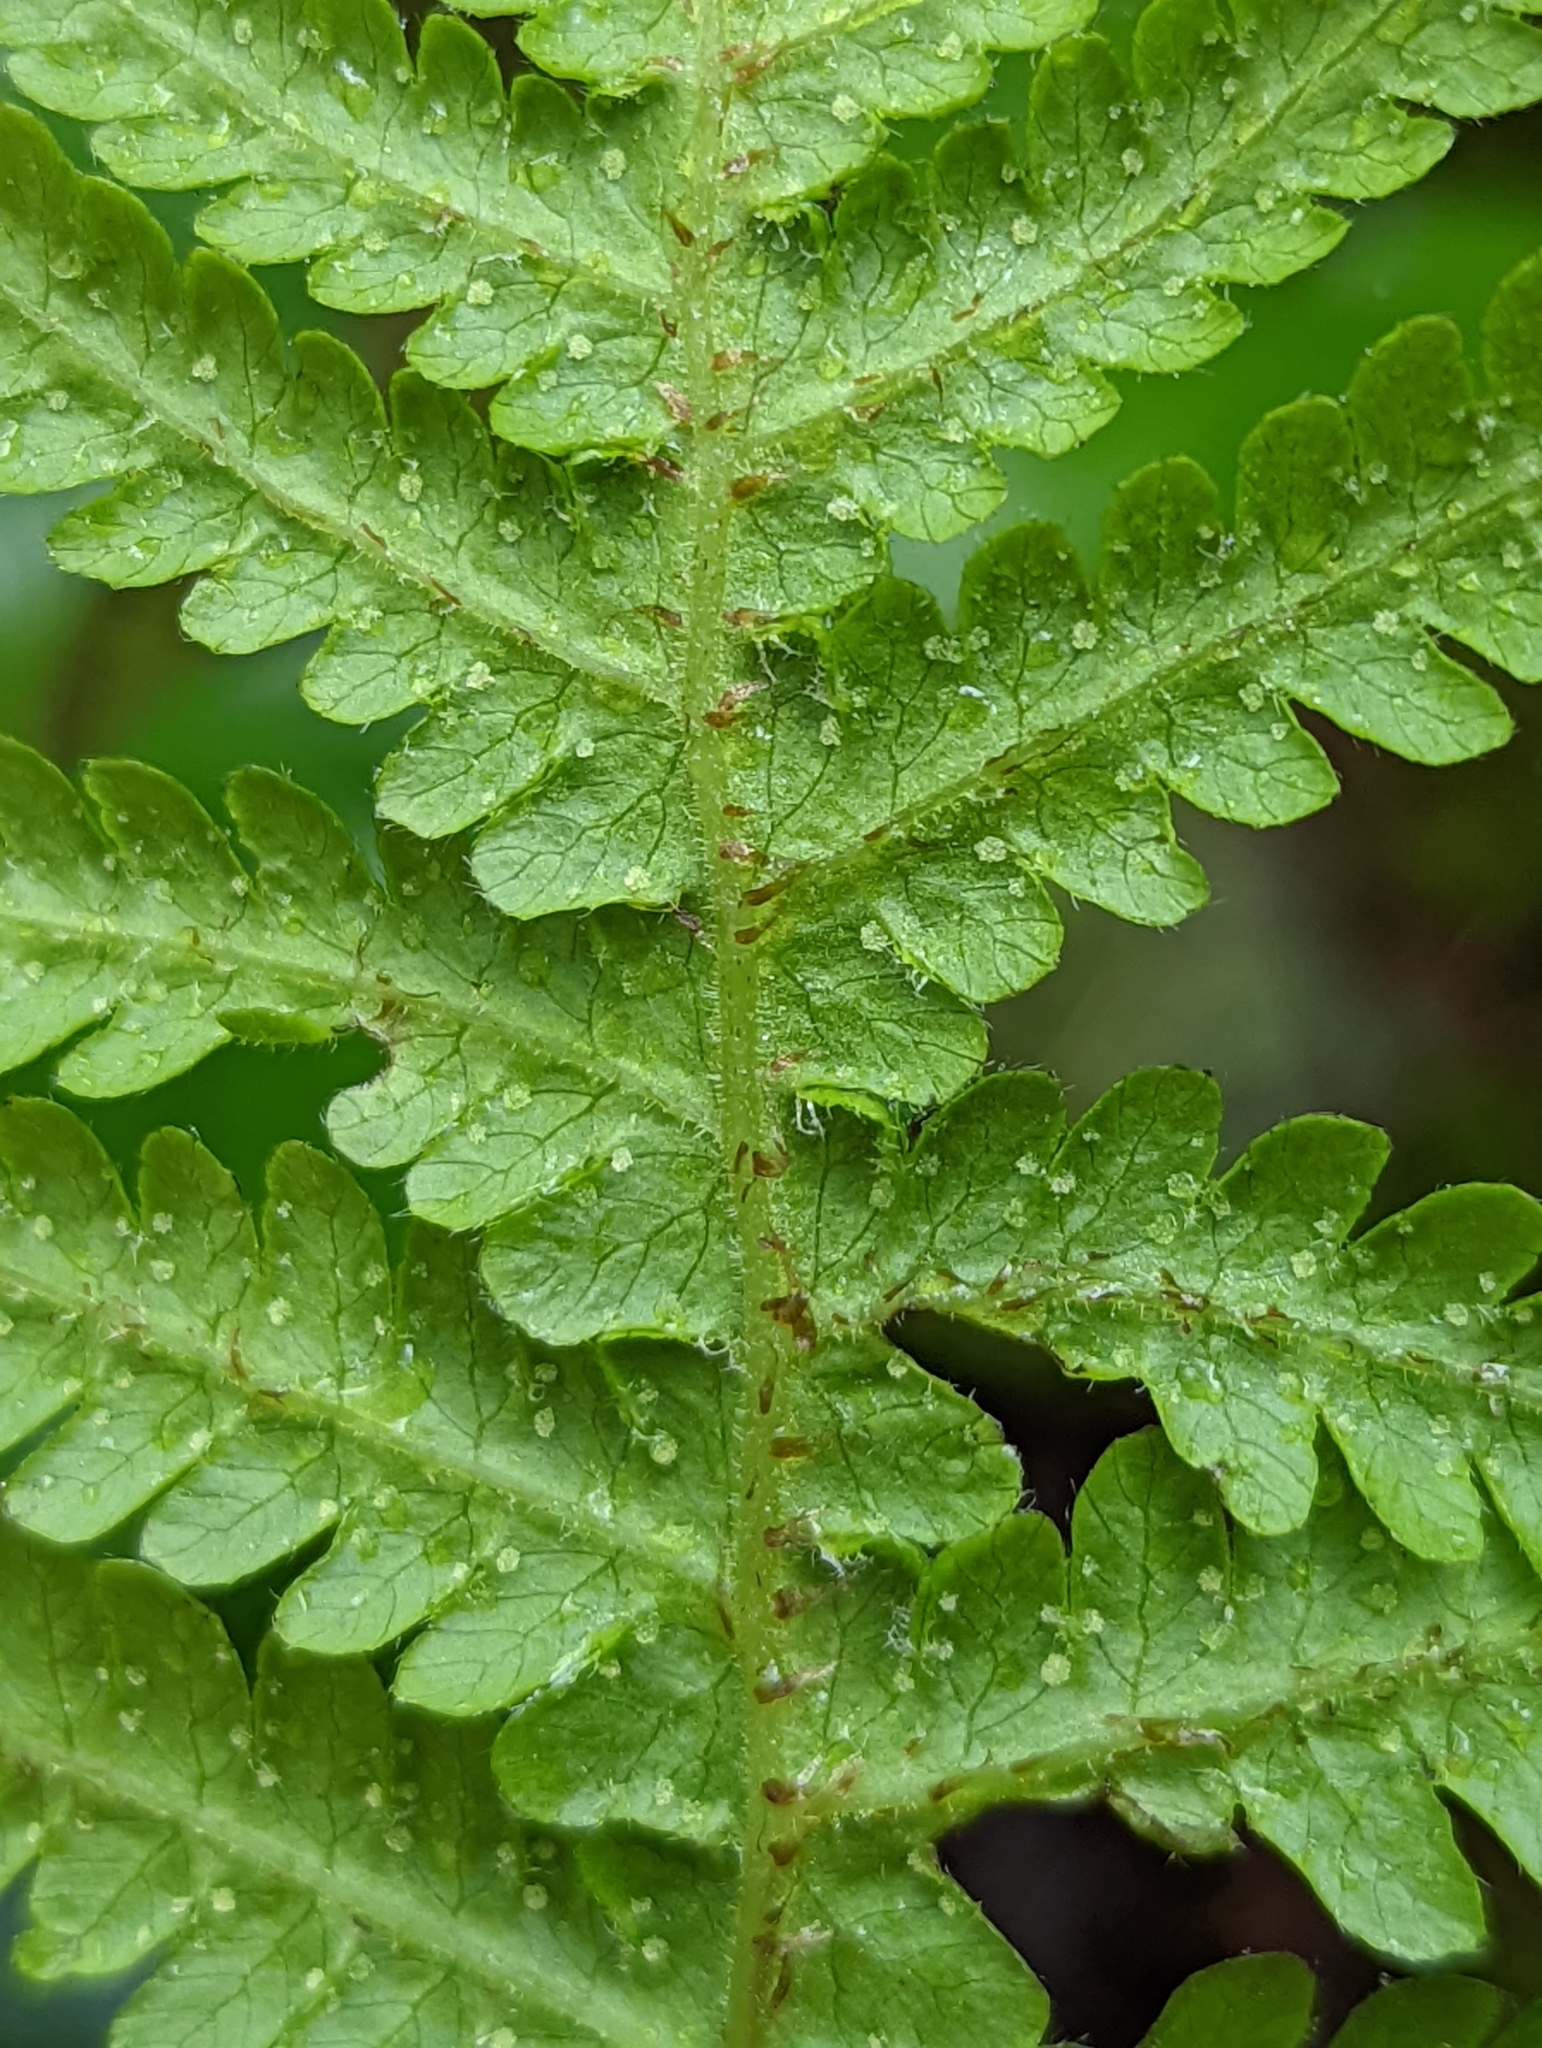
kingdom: Plantae
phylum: Tracheophyta
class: Polypodiopsida
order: Polypodiales
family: Thelypteridaceae
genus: Phegopteris
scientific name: Phegopteris connectilis
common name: Beech fern
